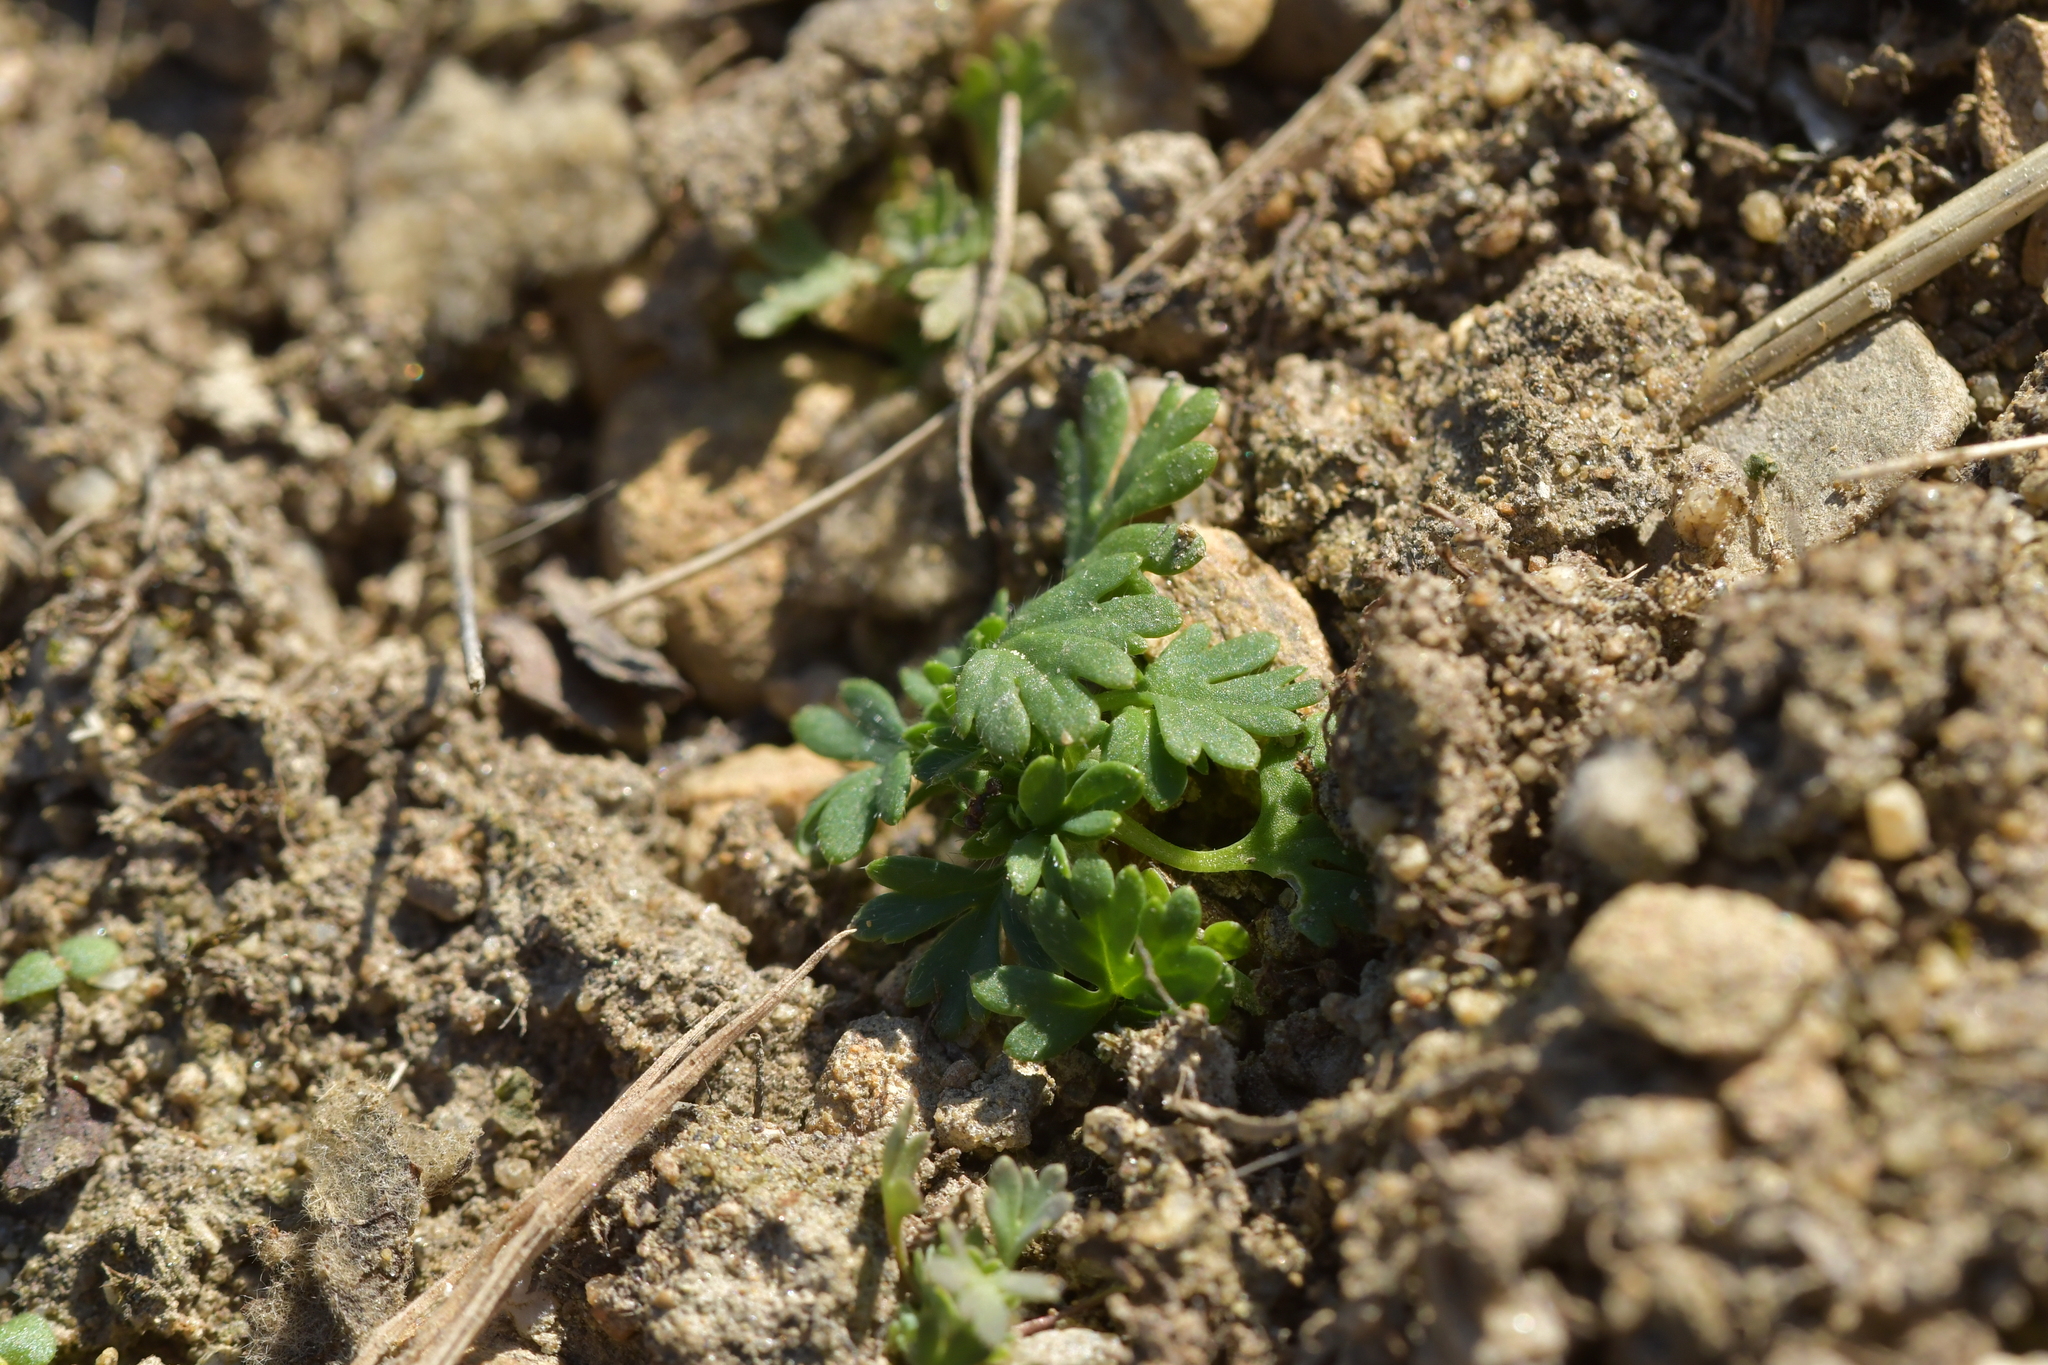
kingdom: Plantae
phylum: Tracheophyta
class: Magnoliopsida
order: Rosales
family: Rosaceae
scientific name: Rosaceae
